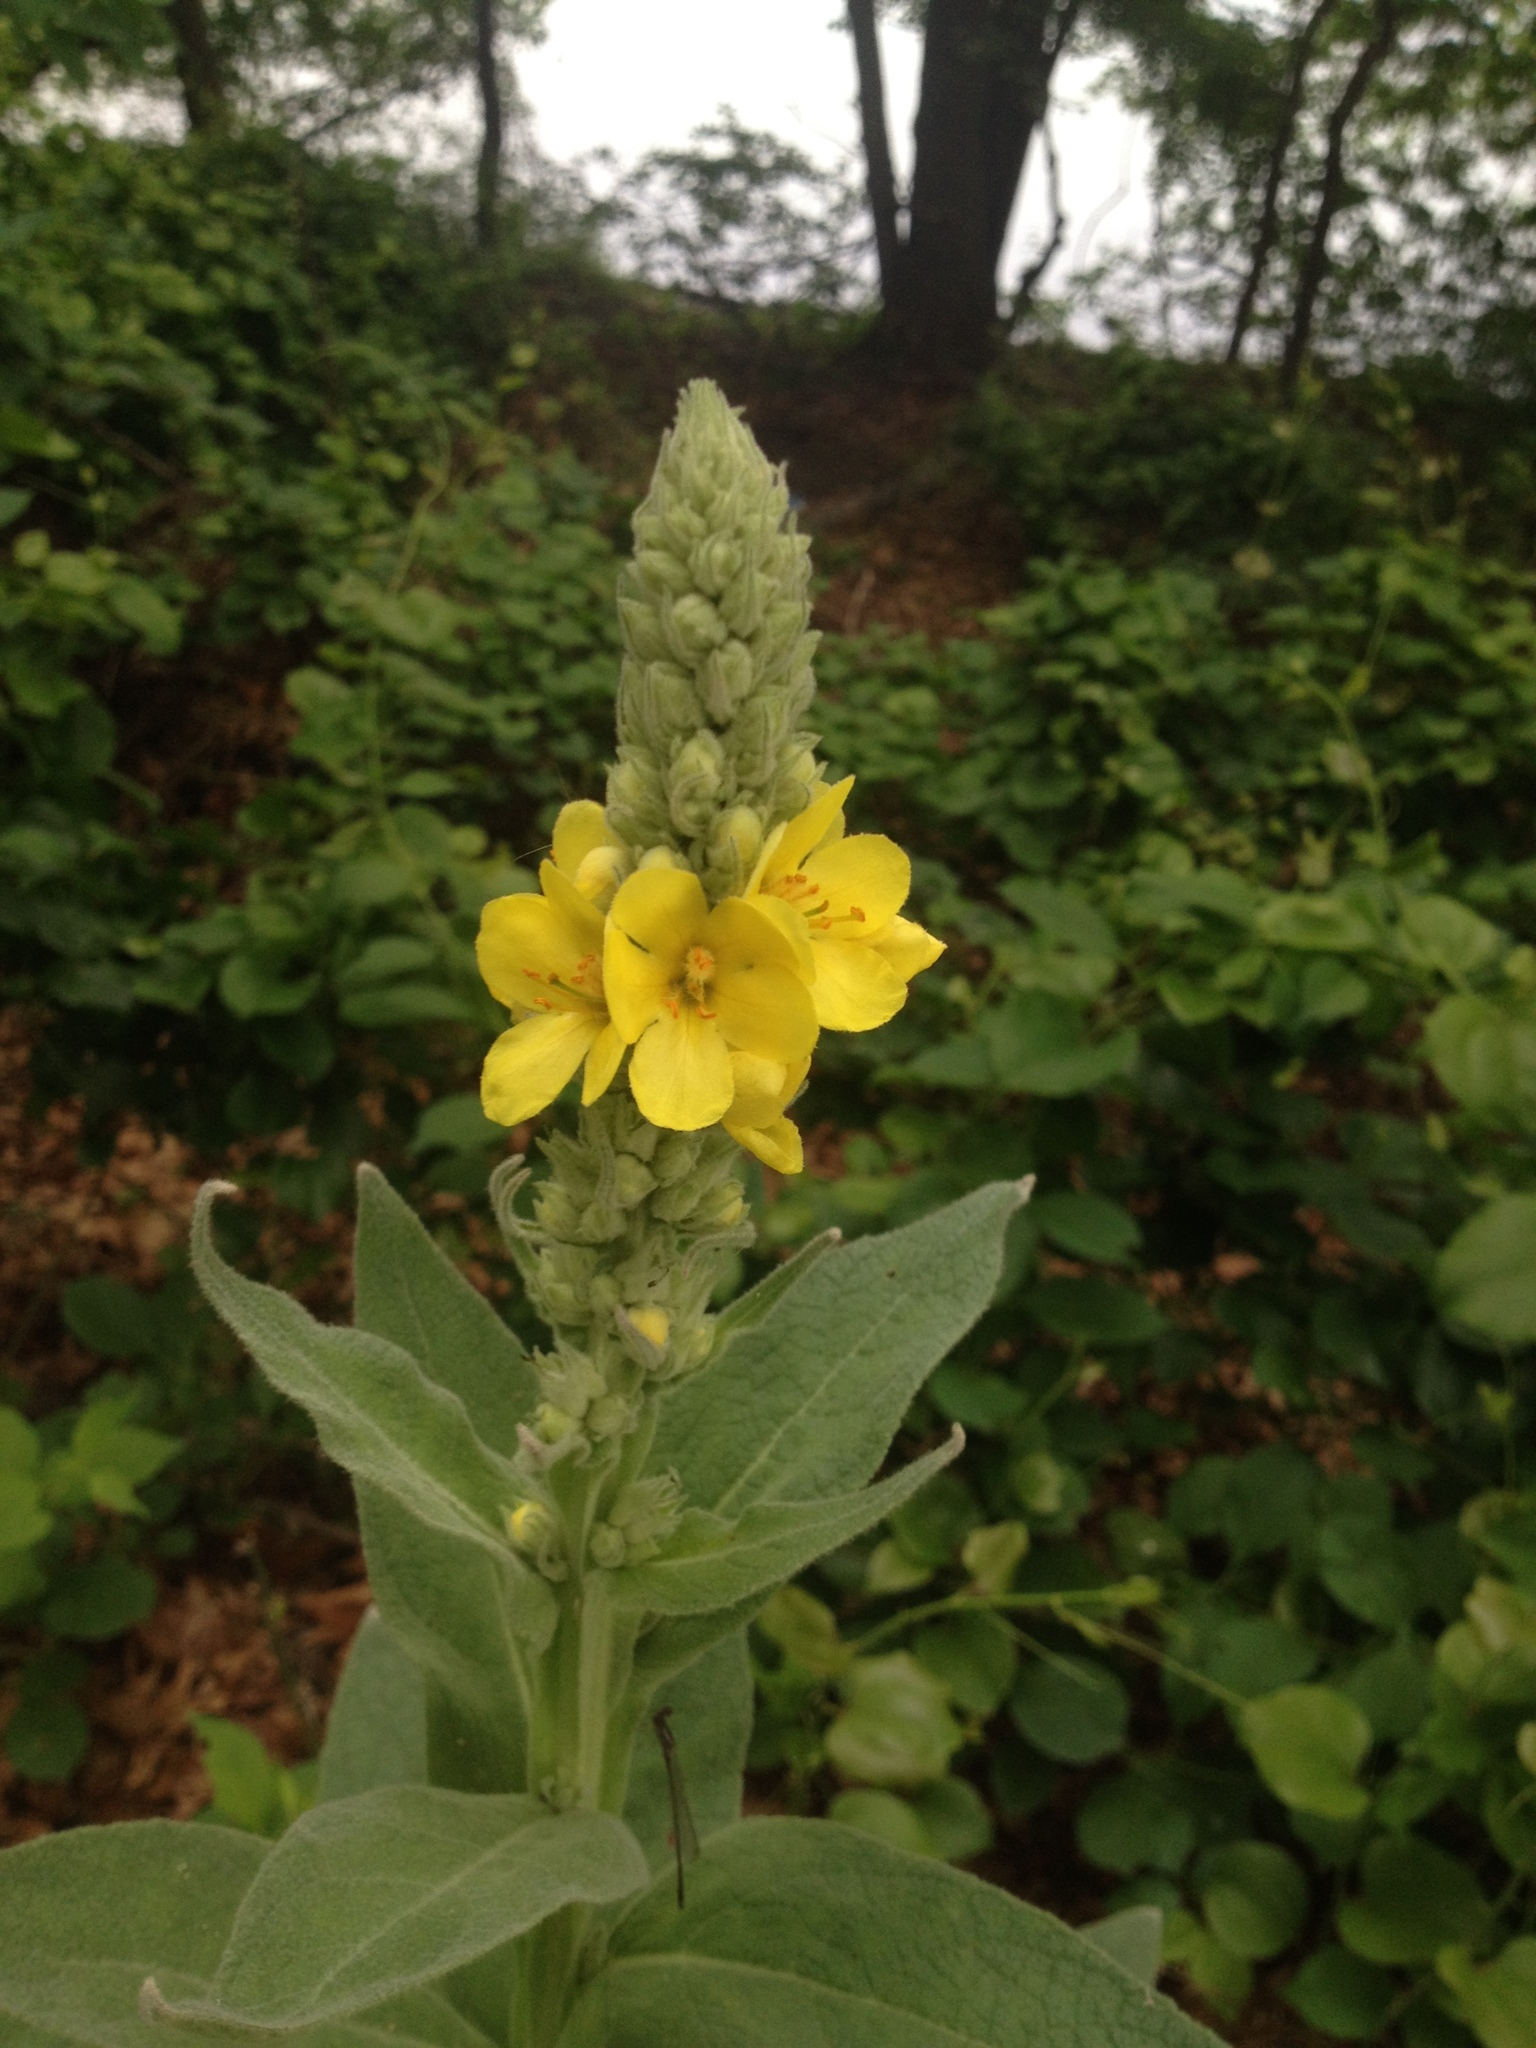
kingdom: Plantae
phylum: Tracheophyta
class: Magnoliopsida
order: Lamiales
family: Scrophulariaceae
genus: Verbascum
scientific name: Verbascum thapsus
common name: Common mullein
